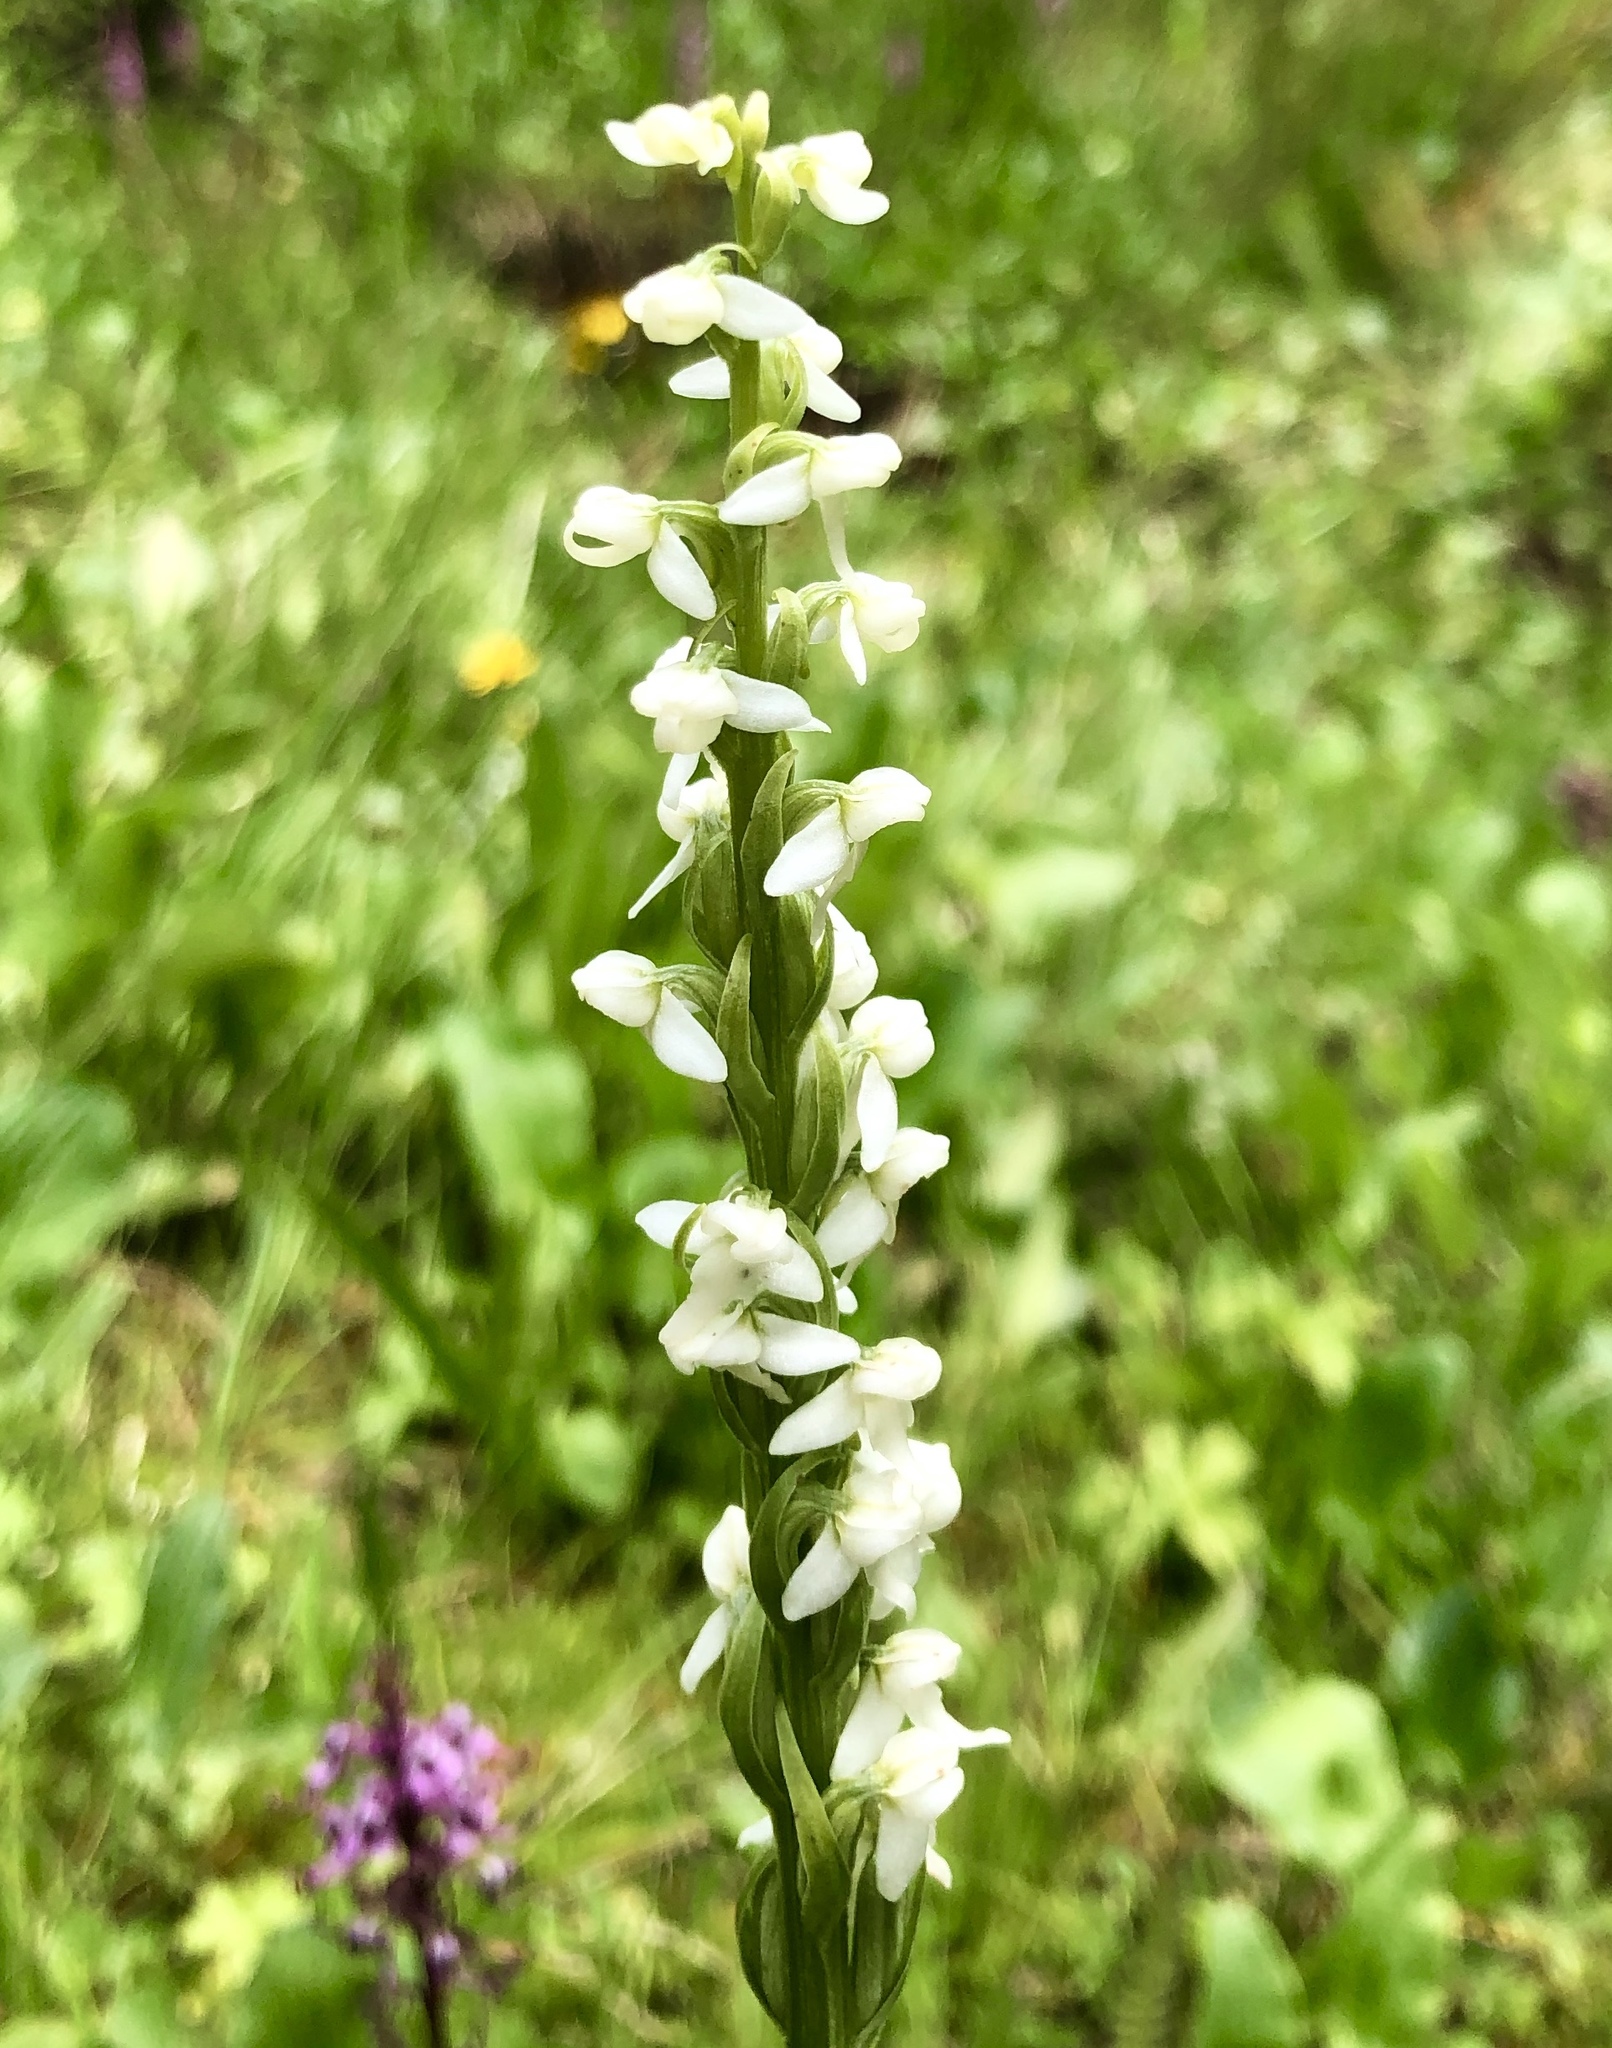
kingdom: Plantae
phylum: Tracheophyta
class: Liliopsida
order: Asparagales
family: Orchidaceae
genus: Platanthera
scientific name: Platanthera dilatata
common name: Bog candles
